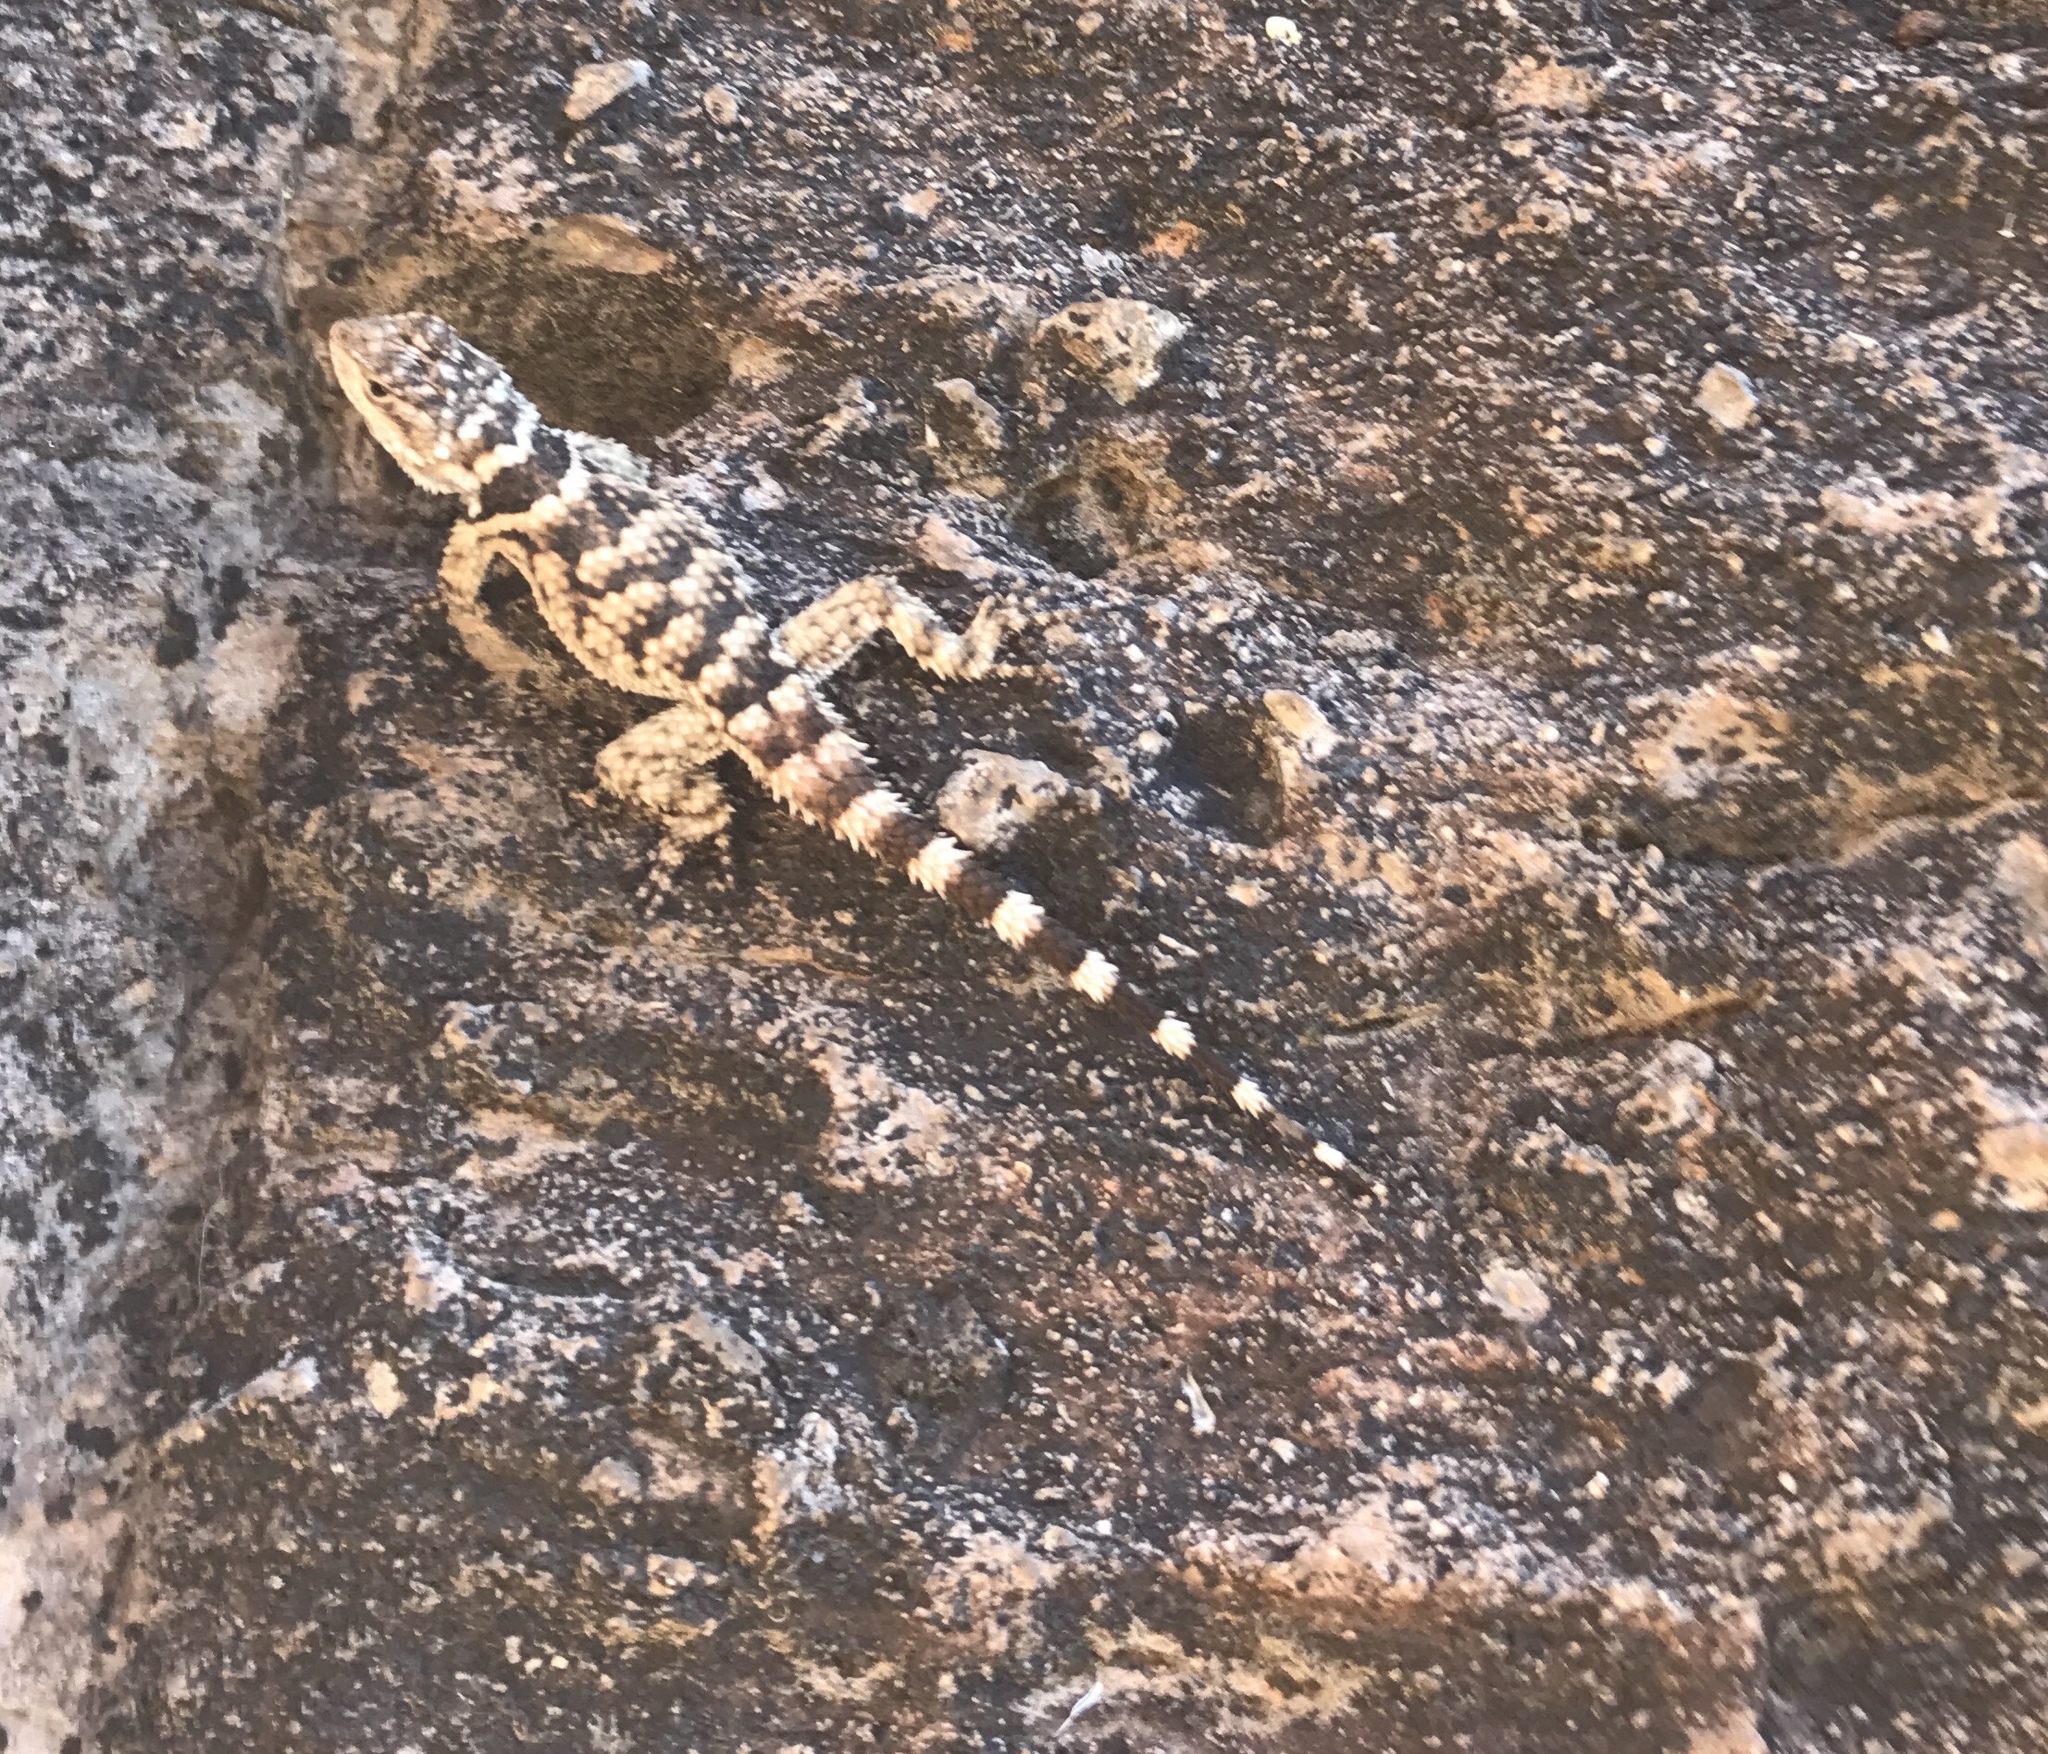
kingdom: Animalia
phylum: Chordata
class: Squamata
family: Phrynosomatidae
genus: Sceloporus
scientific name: Sceloporus poinsettii
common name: Crevice spiny lizard
